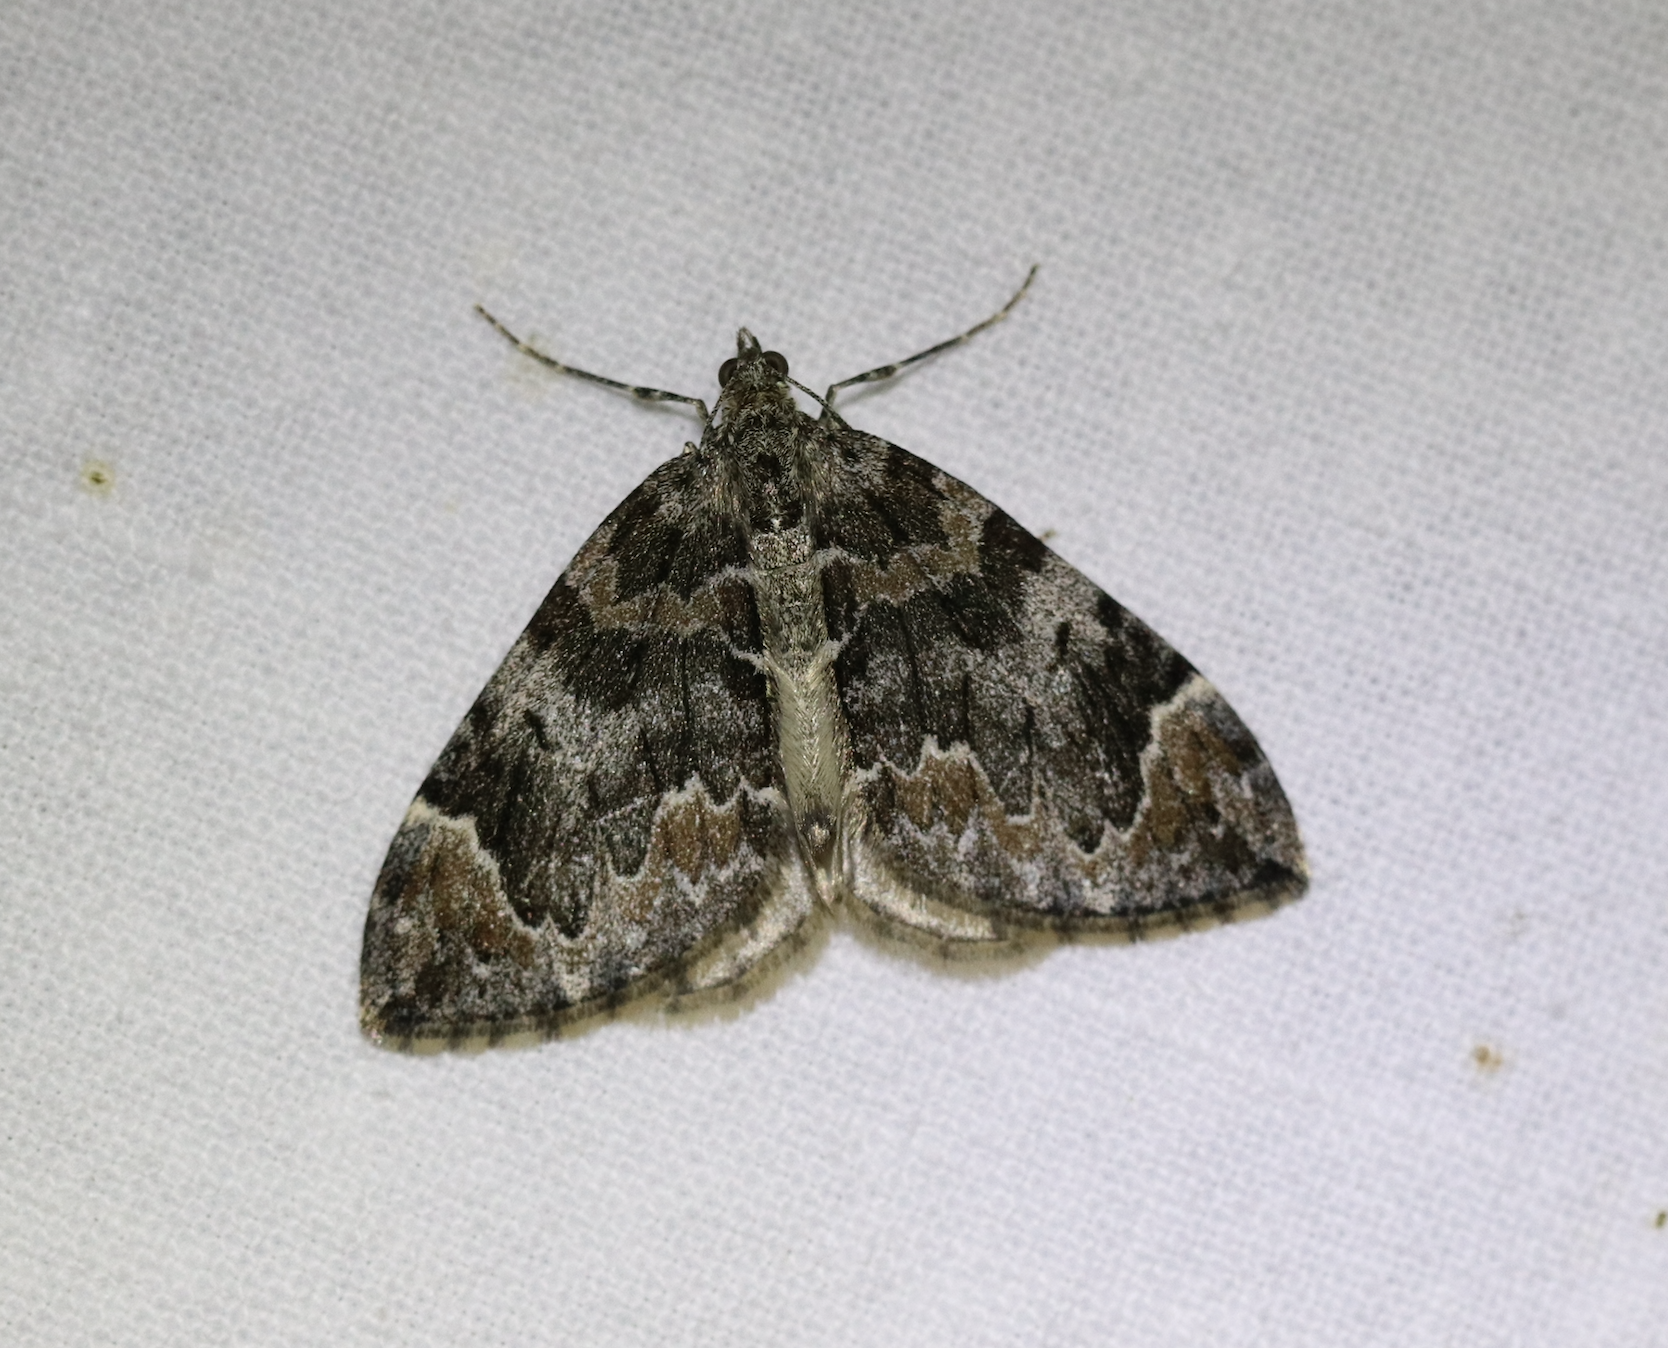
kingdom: Animalia
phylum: Arthropoda
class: Insecta
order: Lepidoptera
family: Geometridae
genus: Dysstroma
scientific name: Dysstroma citrata
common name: Dark marbled carpet
